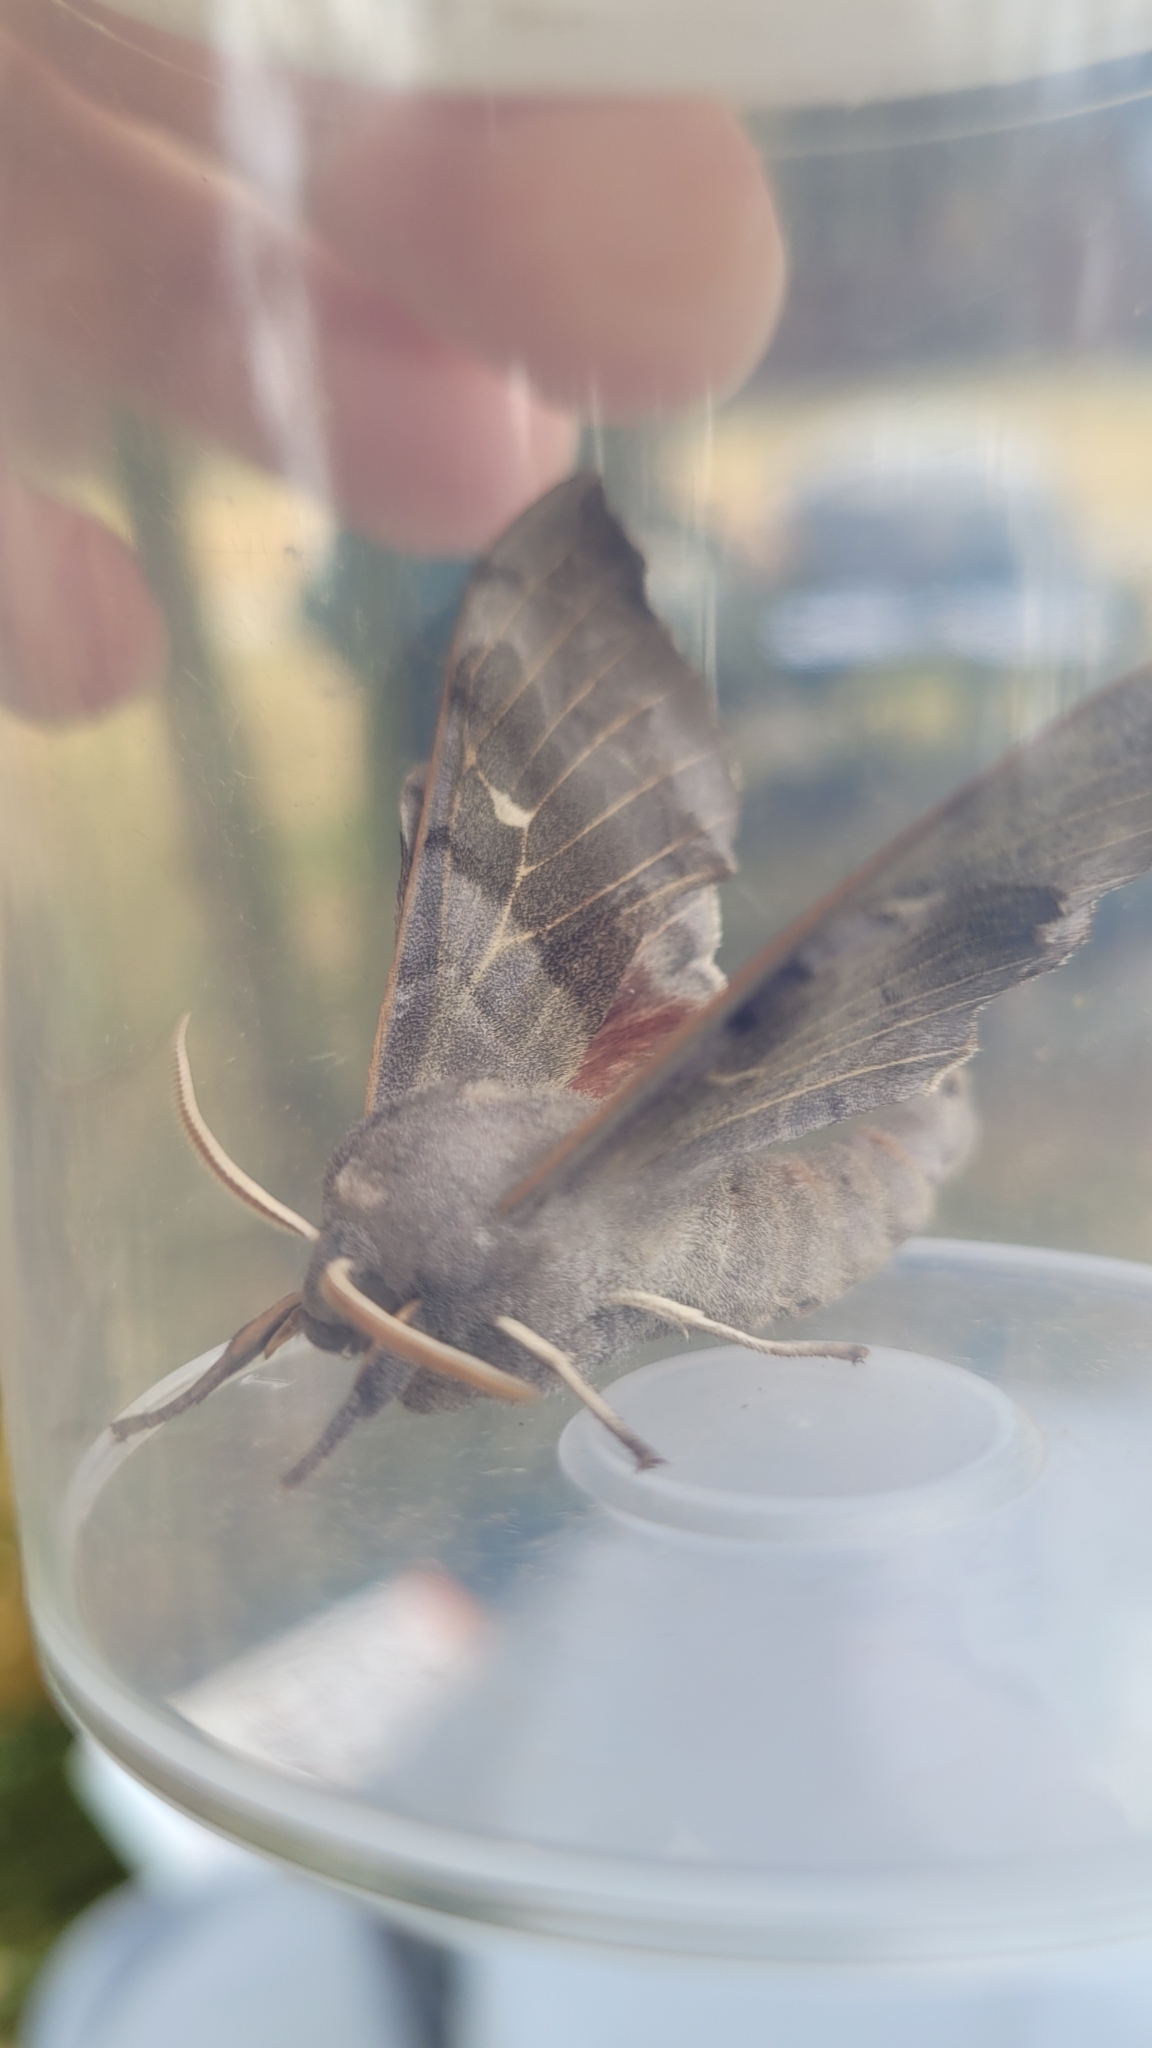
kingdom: Animalia
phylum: Arthropoda
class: Insecta
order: Lepidoptera
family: Sphingidae
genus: Laothoe
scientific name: Laothoe populi
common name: Poplar hawk-moth
